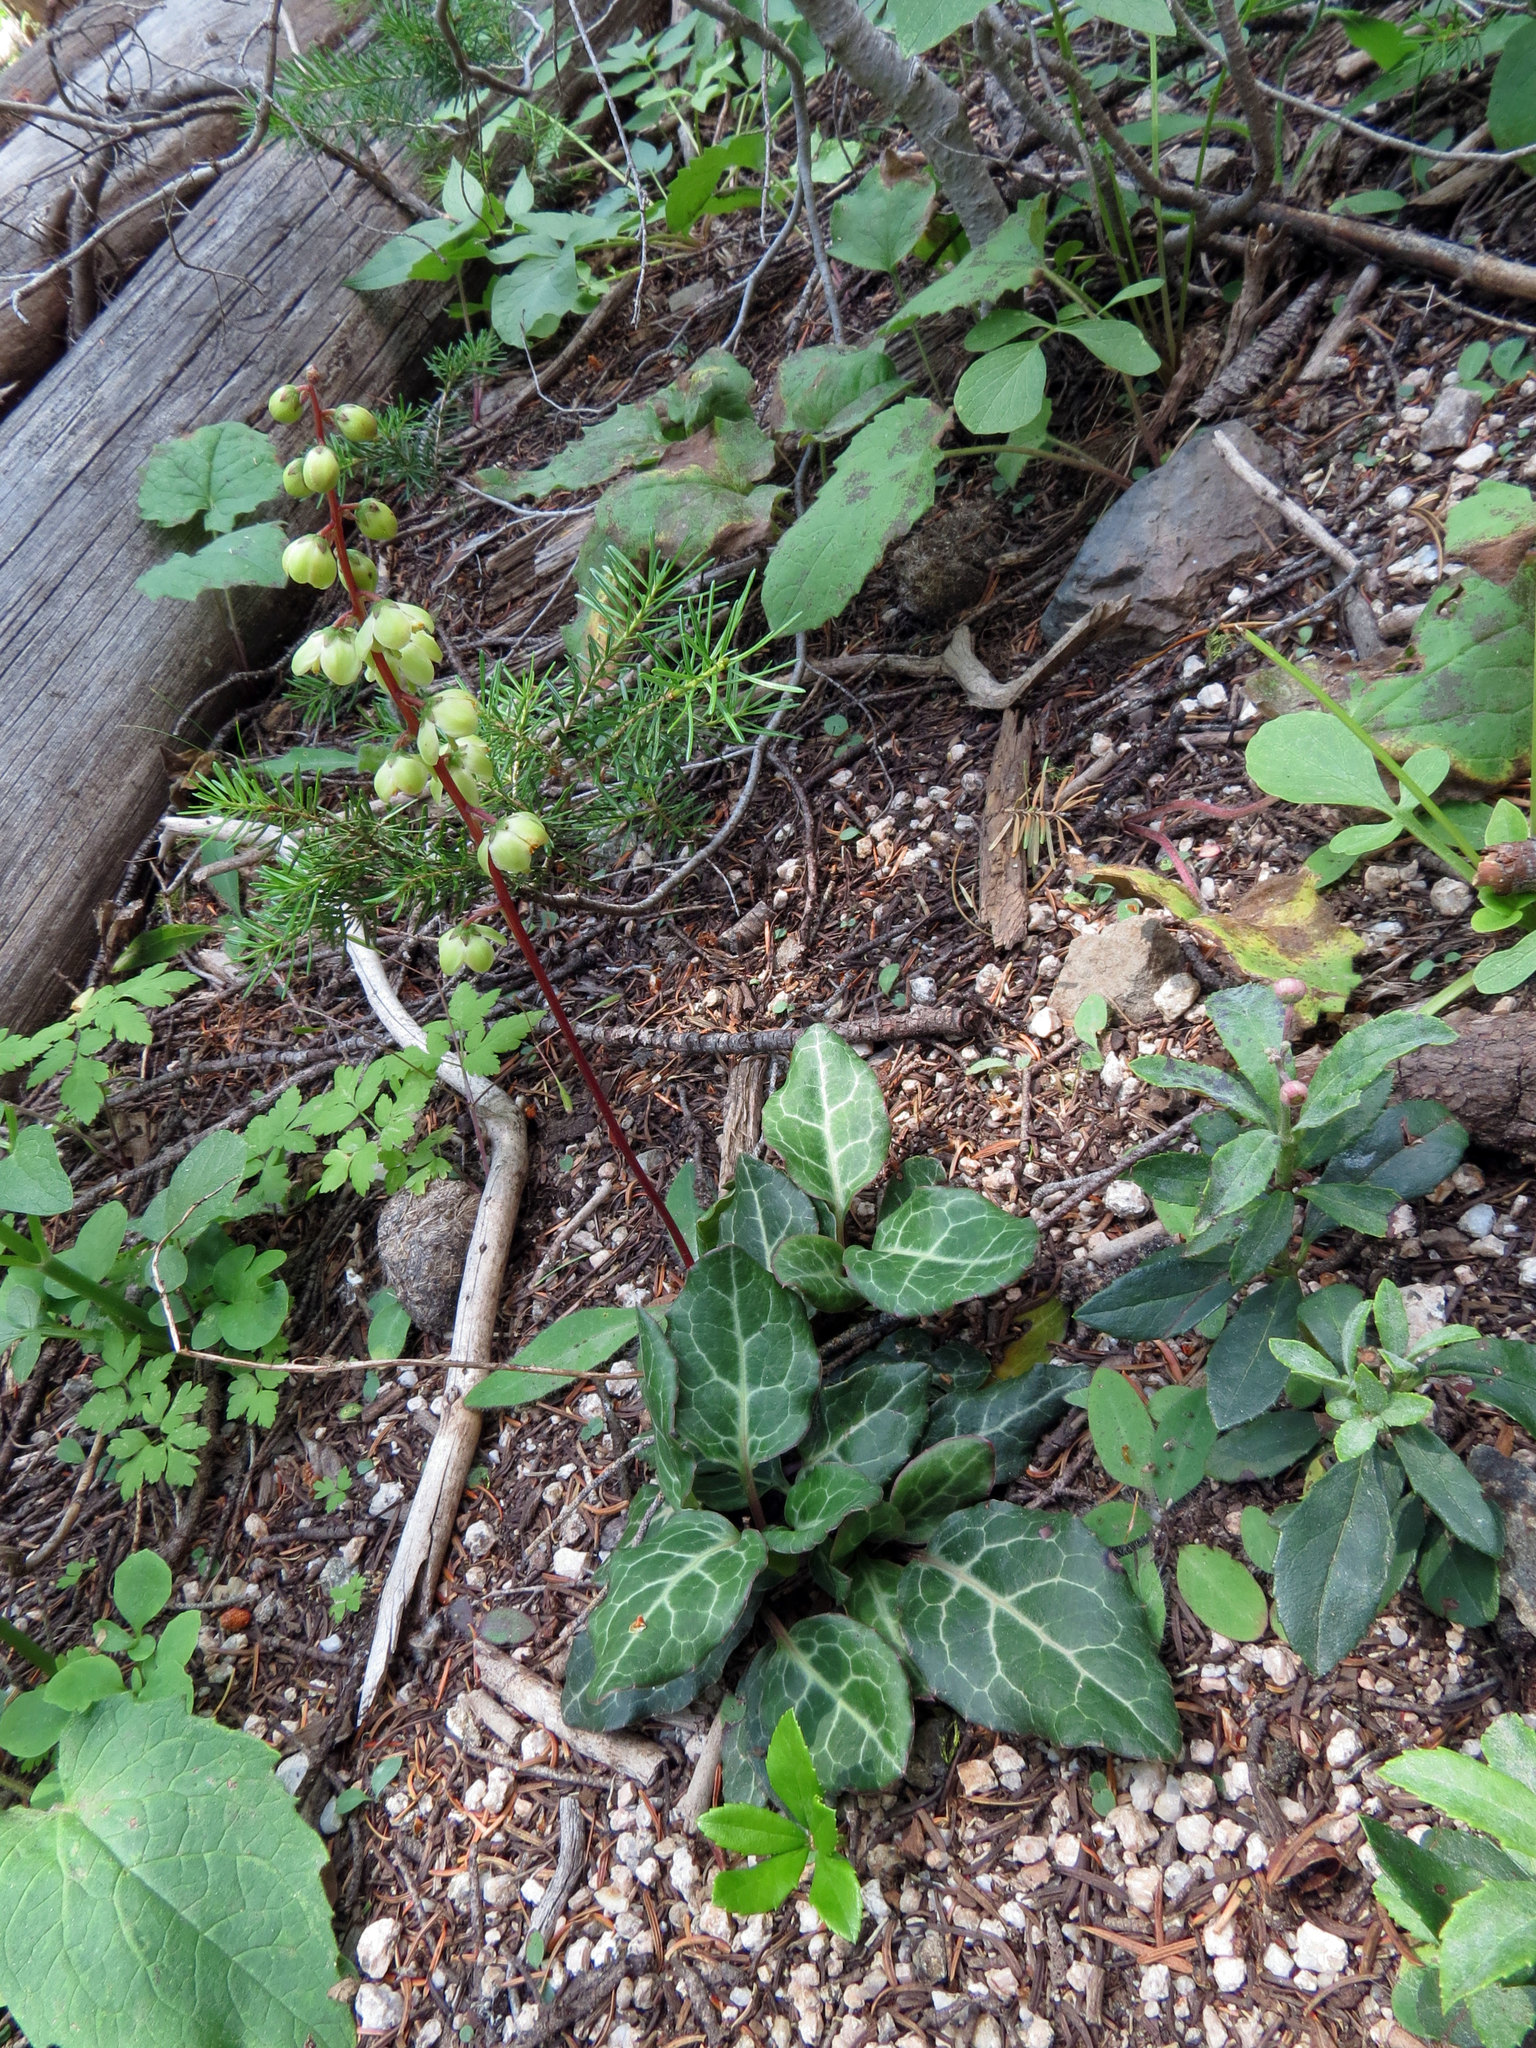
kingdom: Plantae
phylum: Tracheophyta
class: Magnoliopsida
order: Ericales
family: Ericaceae
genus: Pyrola
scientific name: Pyrola picta
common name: White-vein wintergreen
